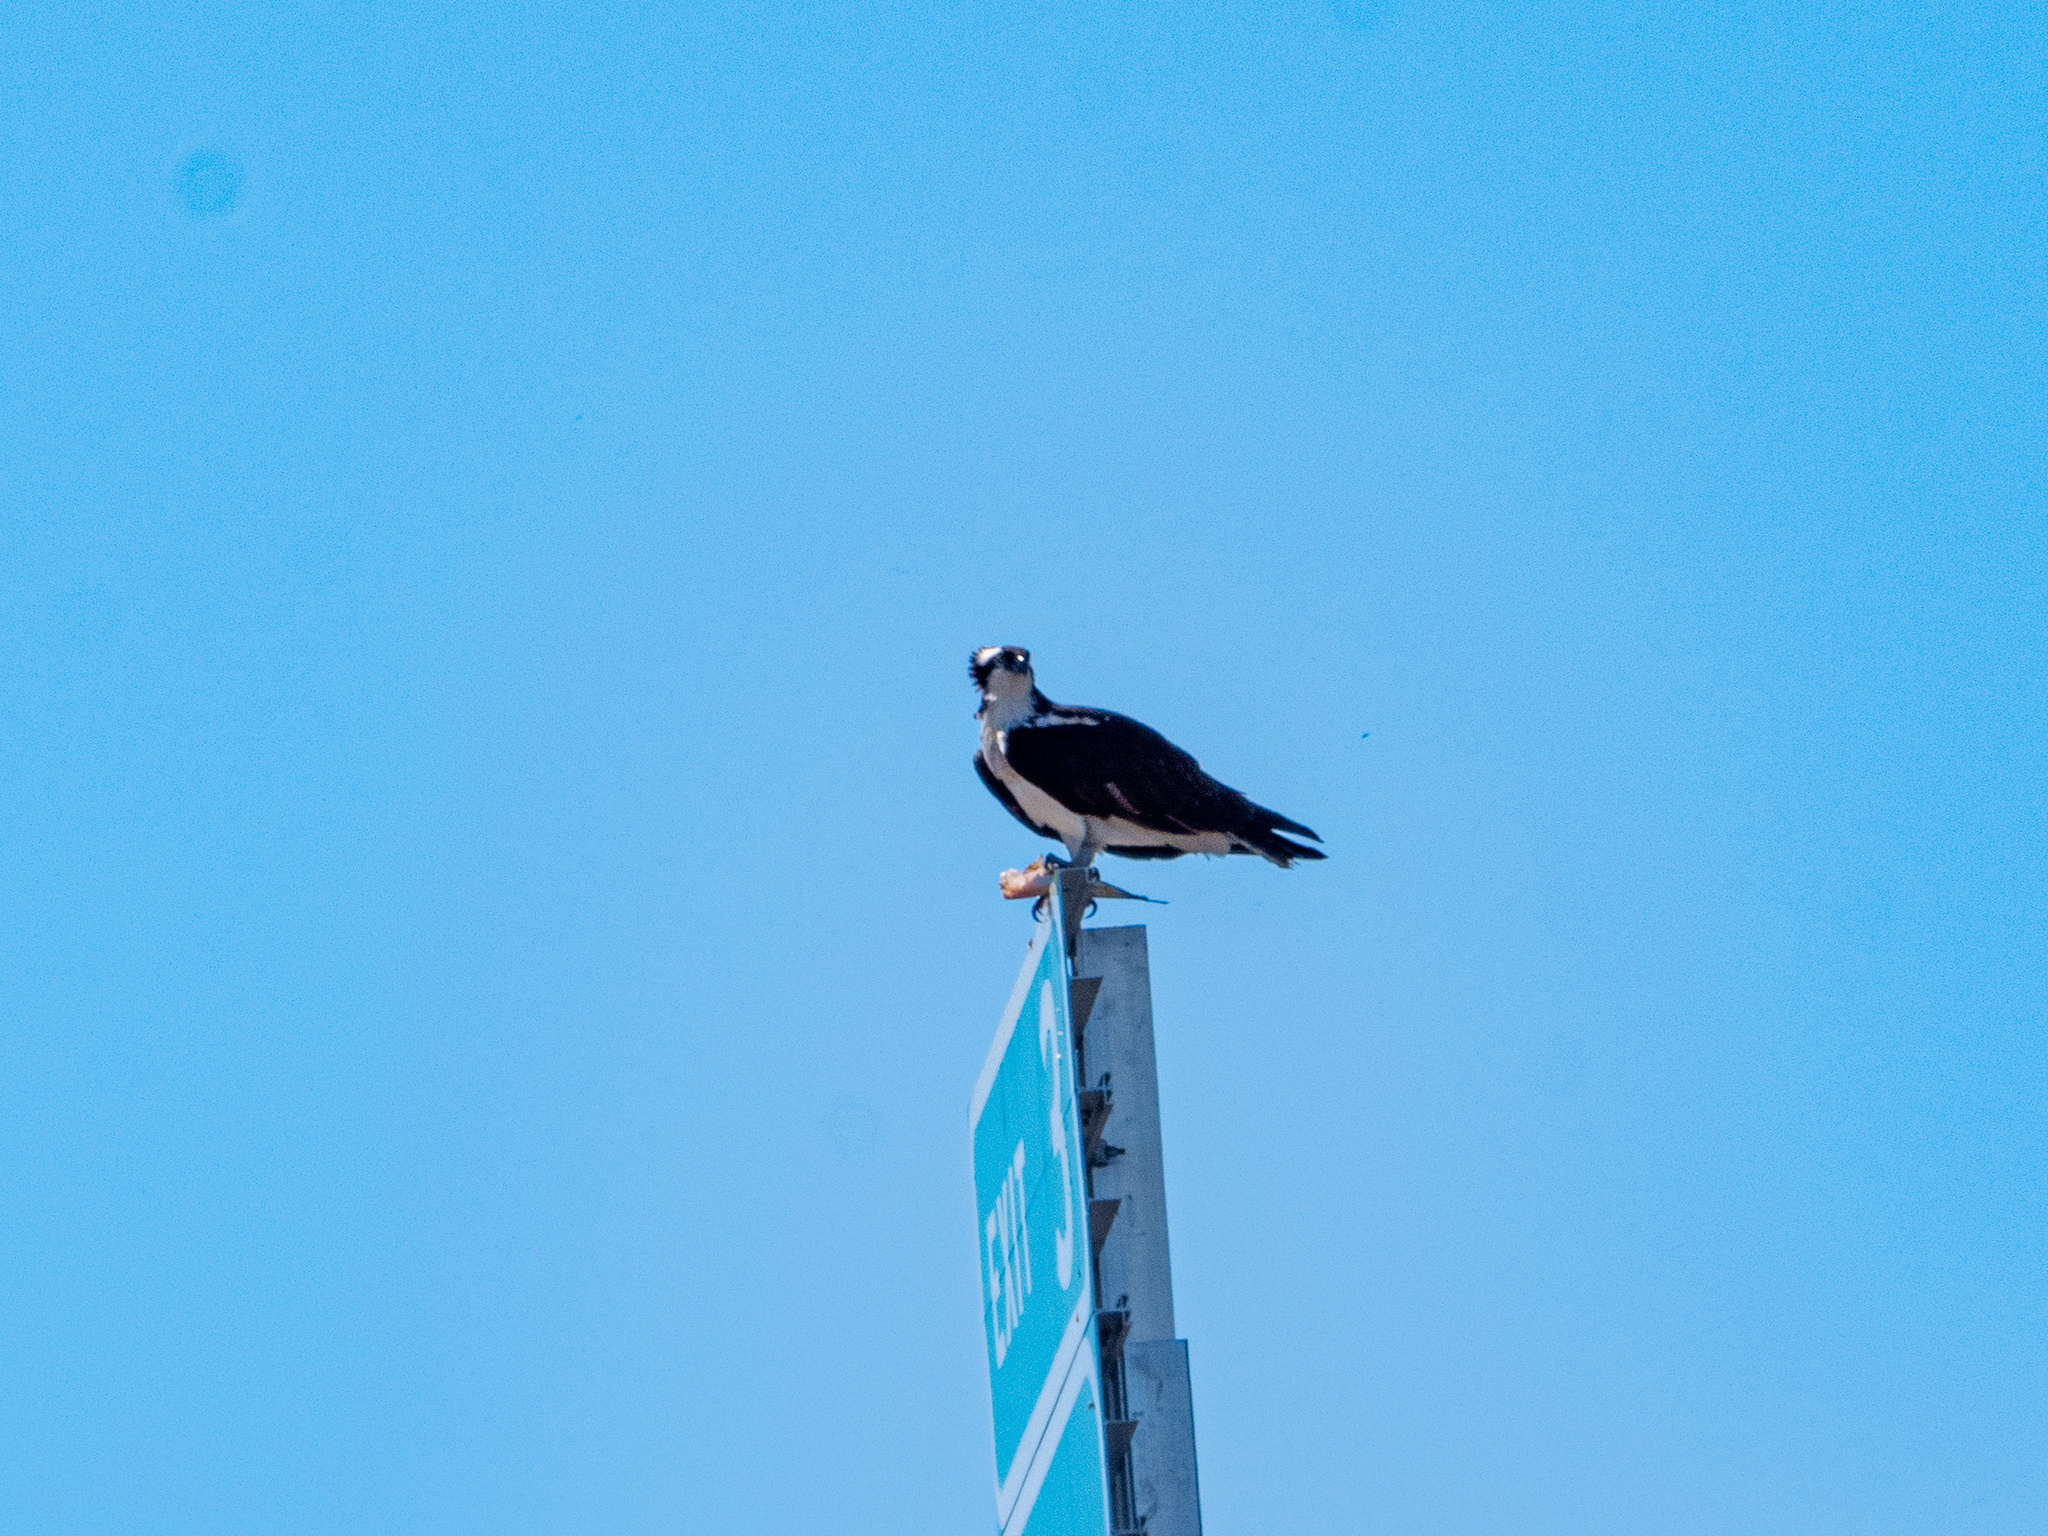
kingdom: Animalia
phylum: Chordata
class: Aves
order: Accipitriformes
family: Pandionidae
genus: Pandion
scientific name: Pandion haliaetus
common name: Osprey
